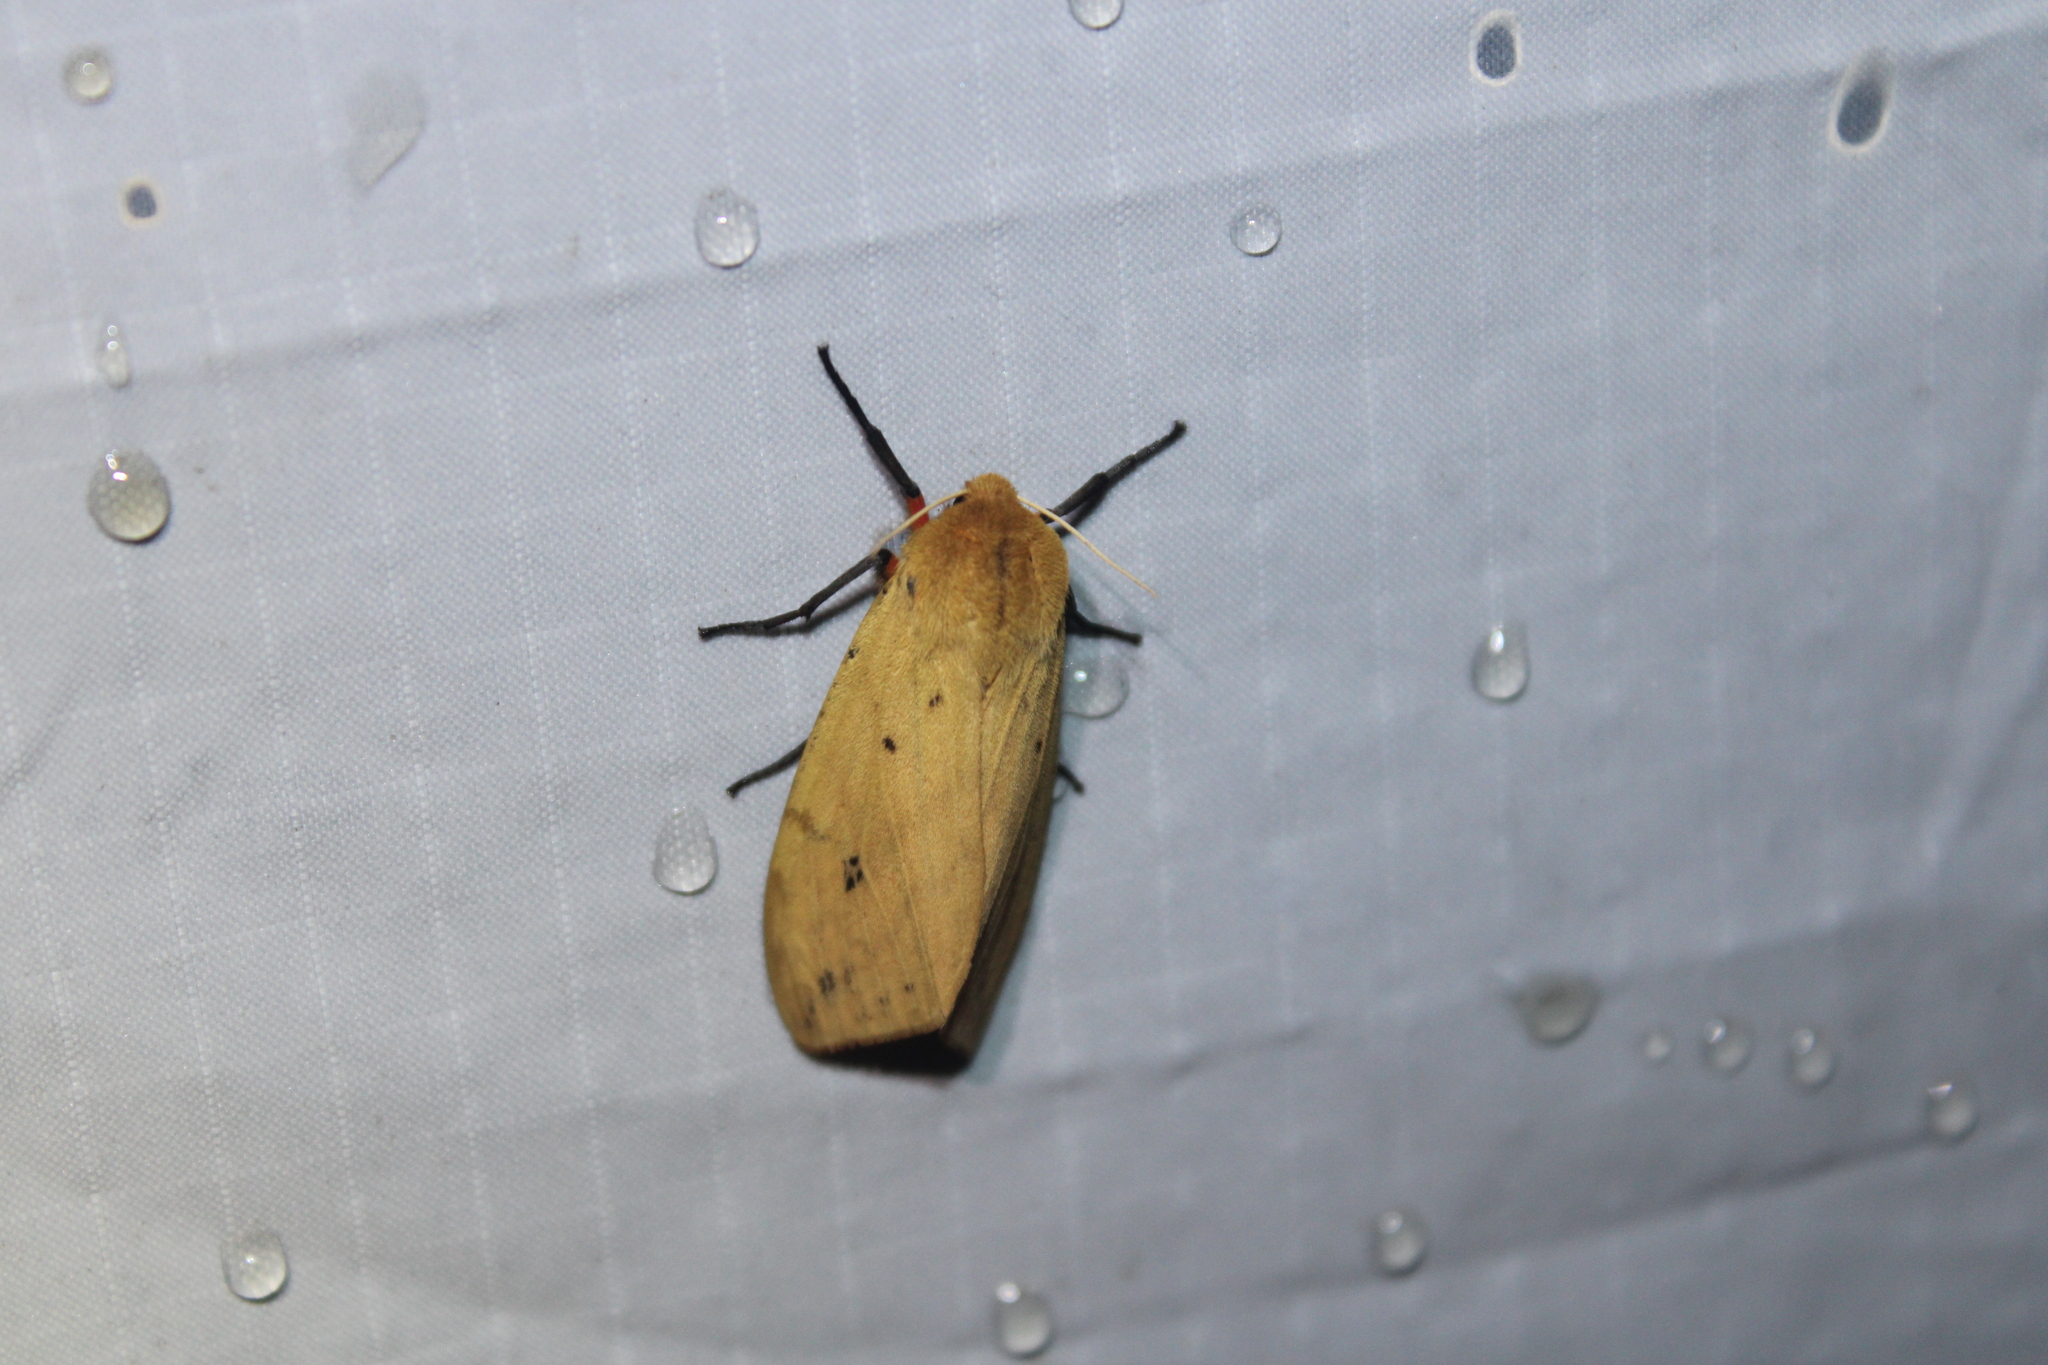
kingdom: Animalia
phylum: Arthropoda
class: Insecta
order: Lepidoptera
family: Erebidae
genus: Pyrrharctia
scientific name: Pyrrharctia isabella
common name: Isabella tiger moth
